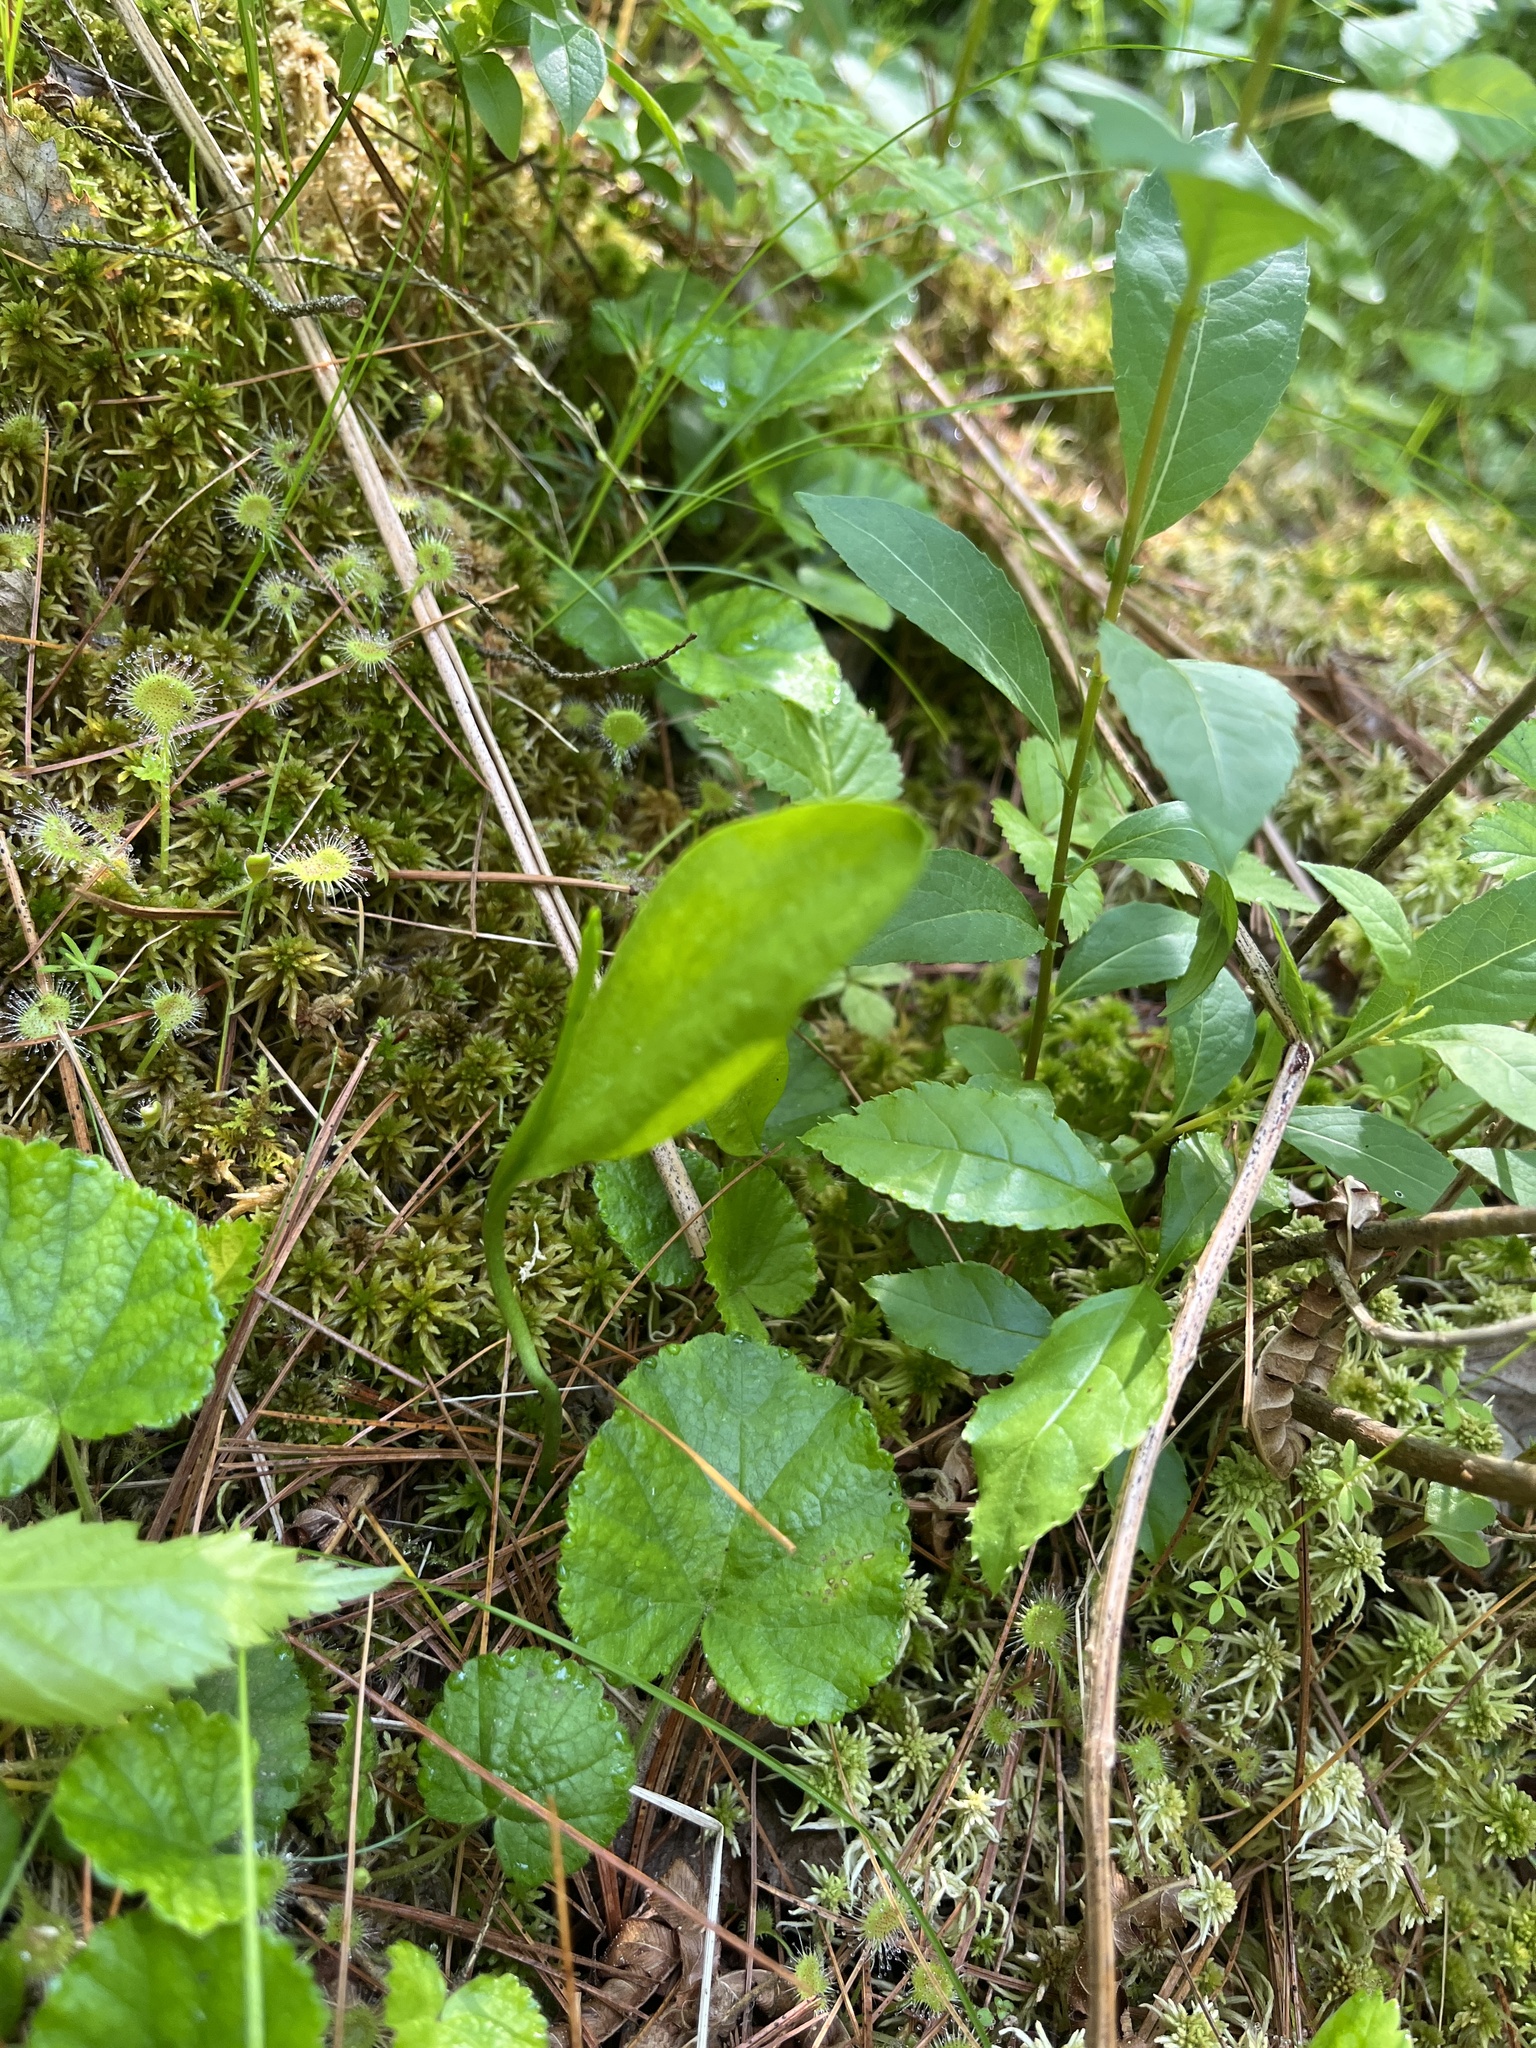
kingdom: Plantae
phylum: Tracheophyta
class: Polypodiopsida
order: Ophioglossales
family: Ophioglossaceae
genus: Ophioglossum
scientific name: Ophioglossum pusillum
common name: Northern adder's-tongue
